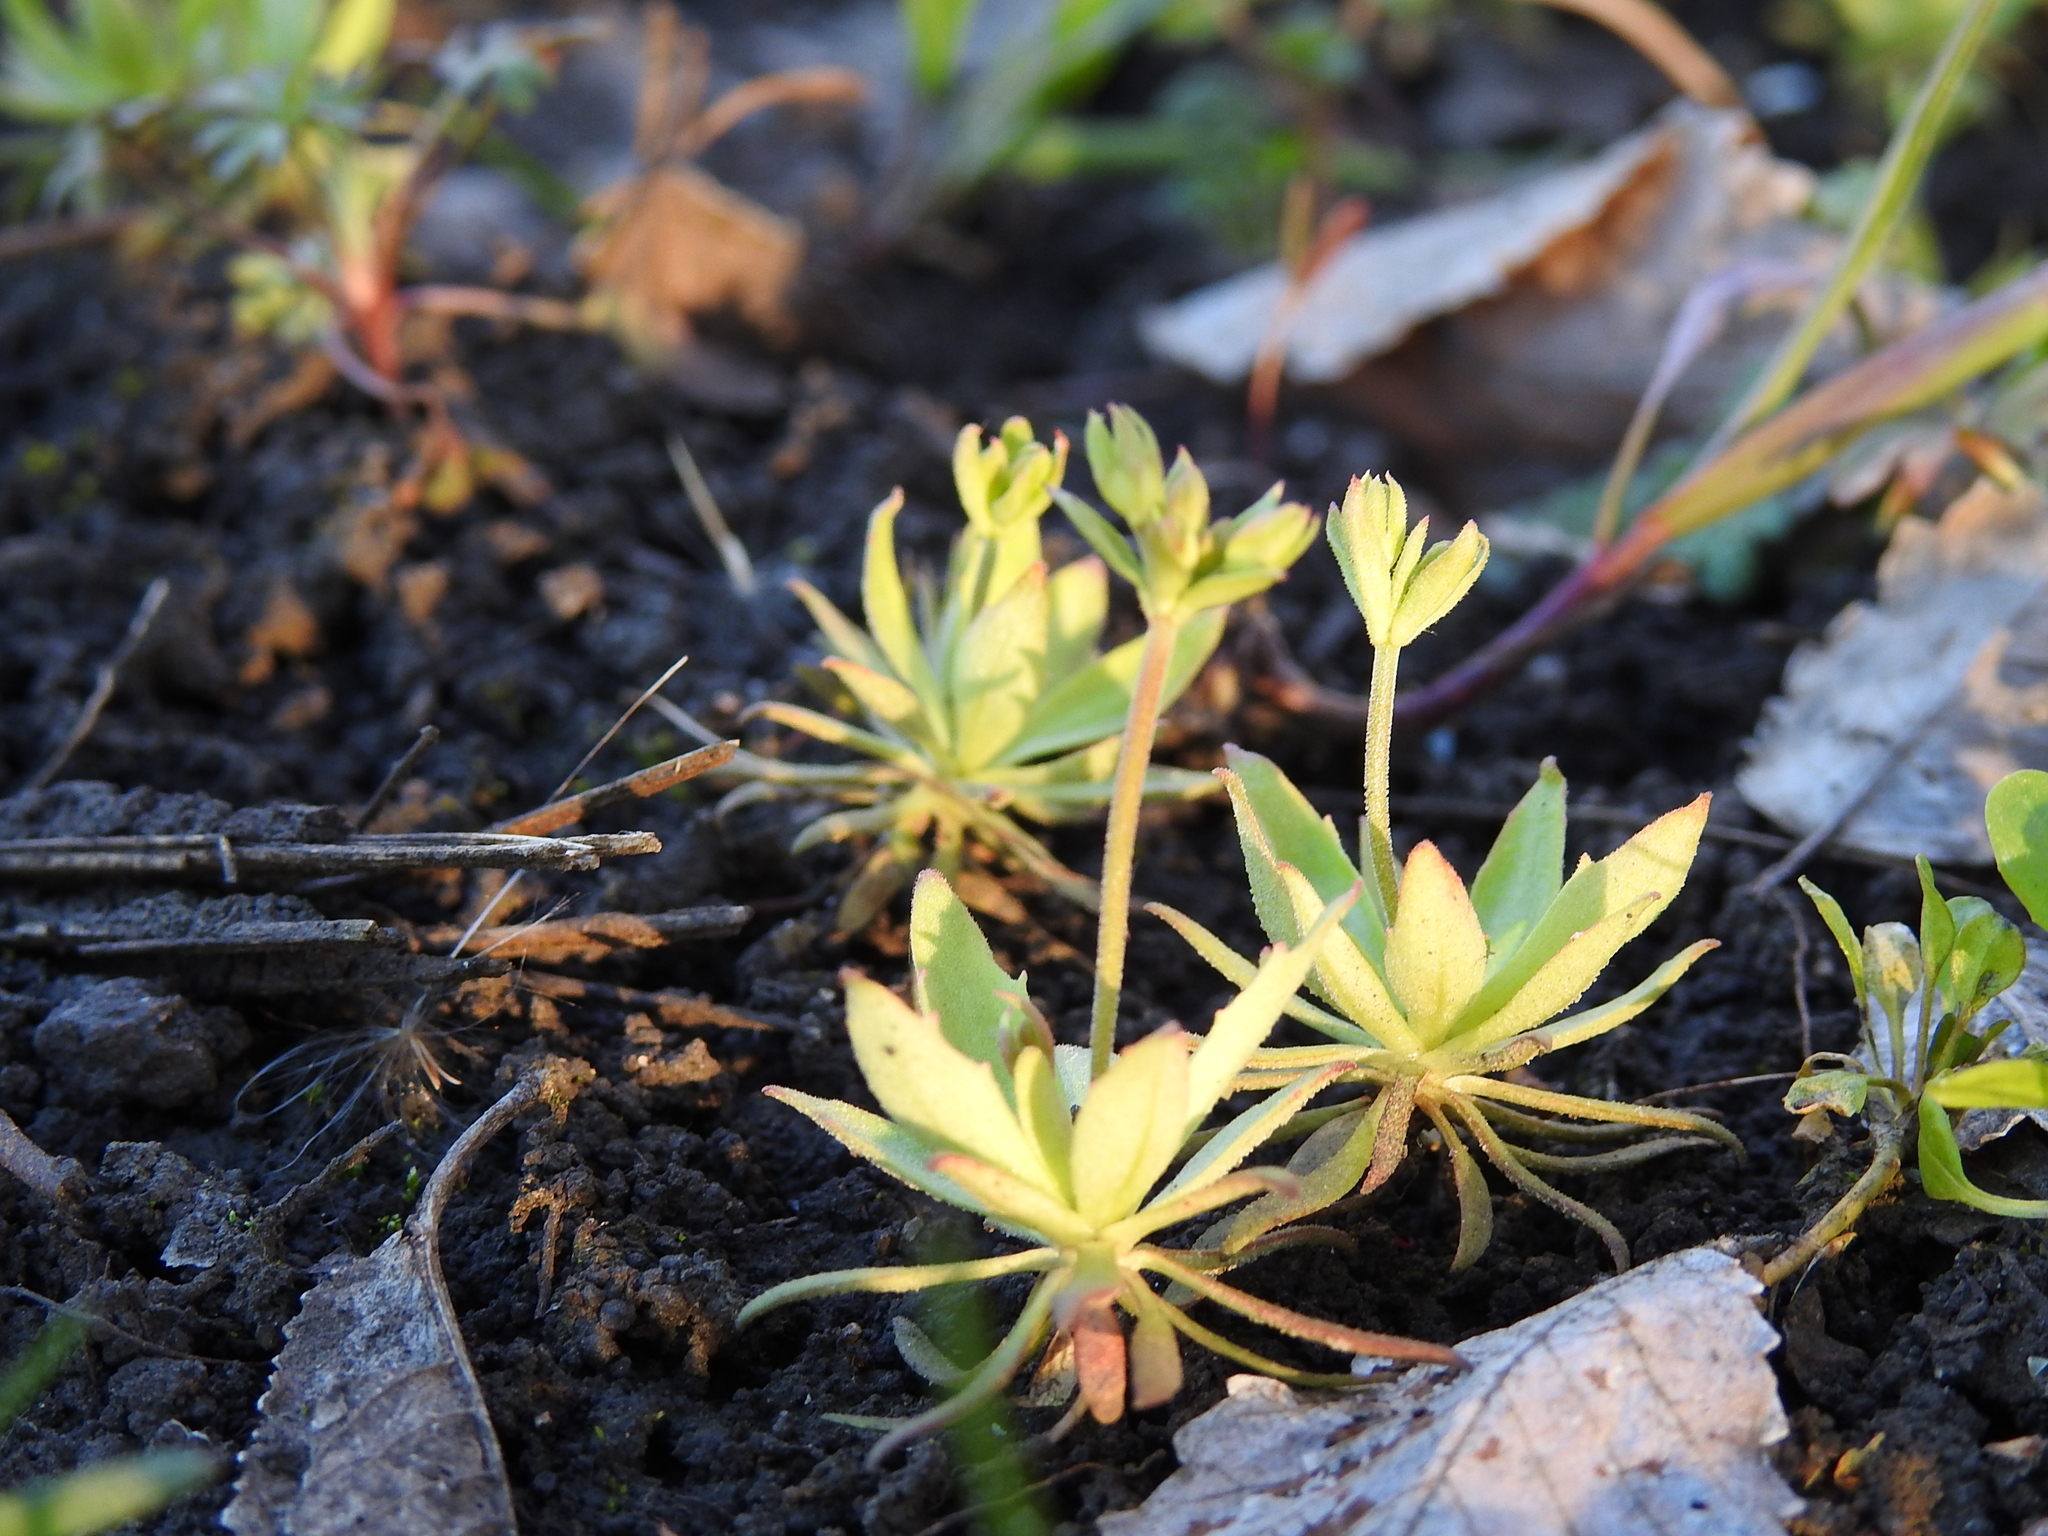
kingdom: Plantae
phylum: Tracheophyta
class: Magnoliopsida
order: Ericales
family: Primulaceae
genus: Androsace
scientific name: Androsace elongata
